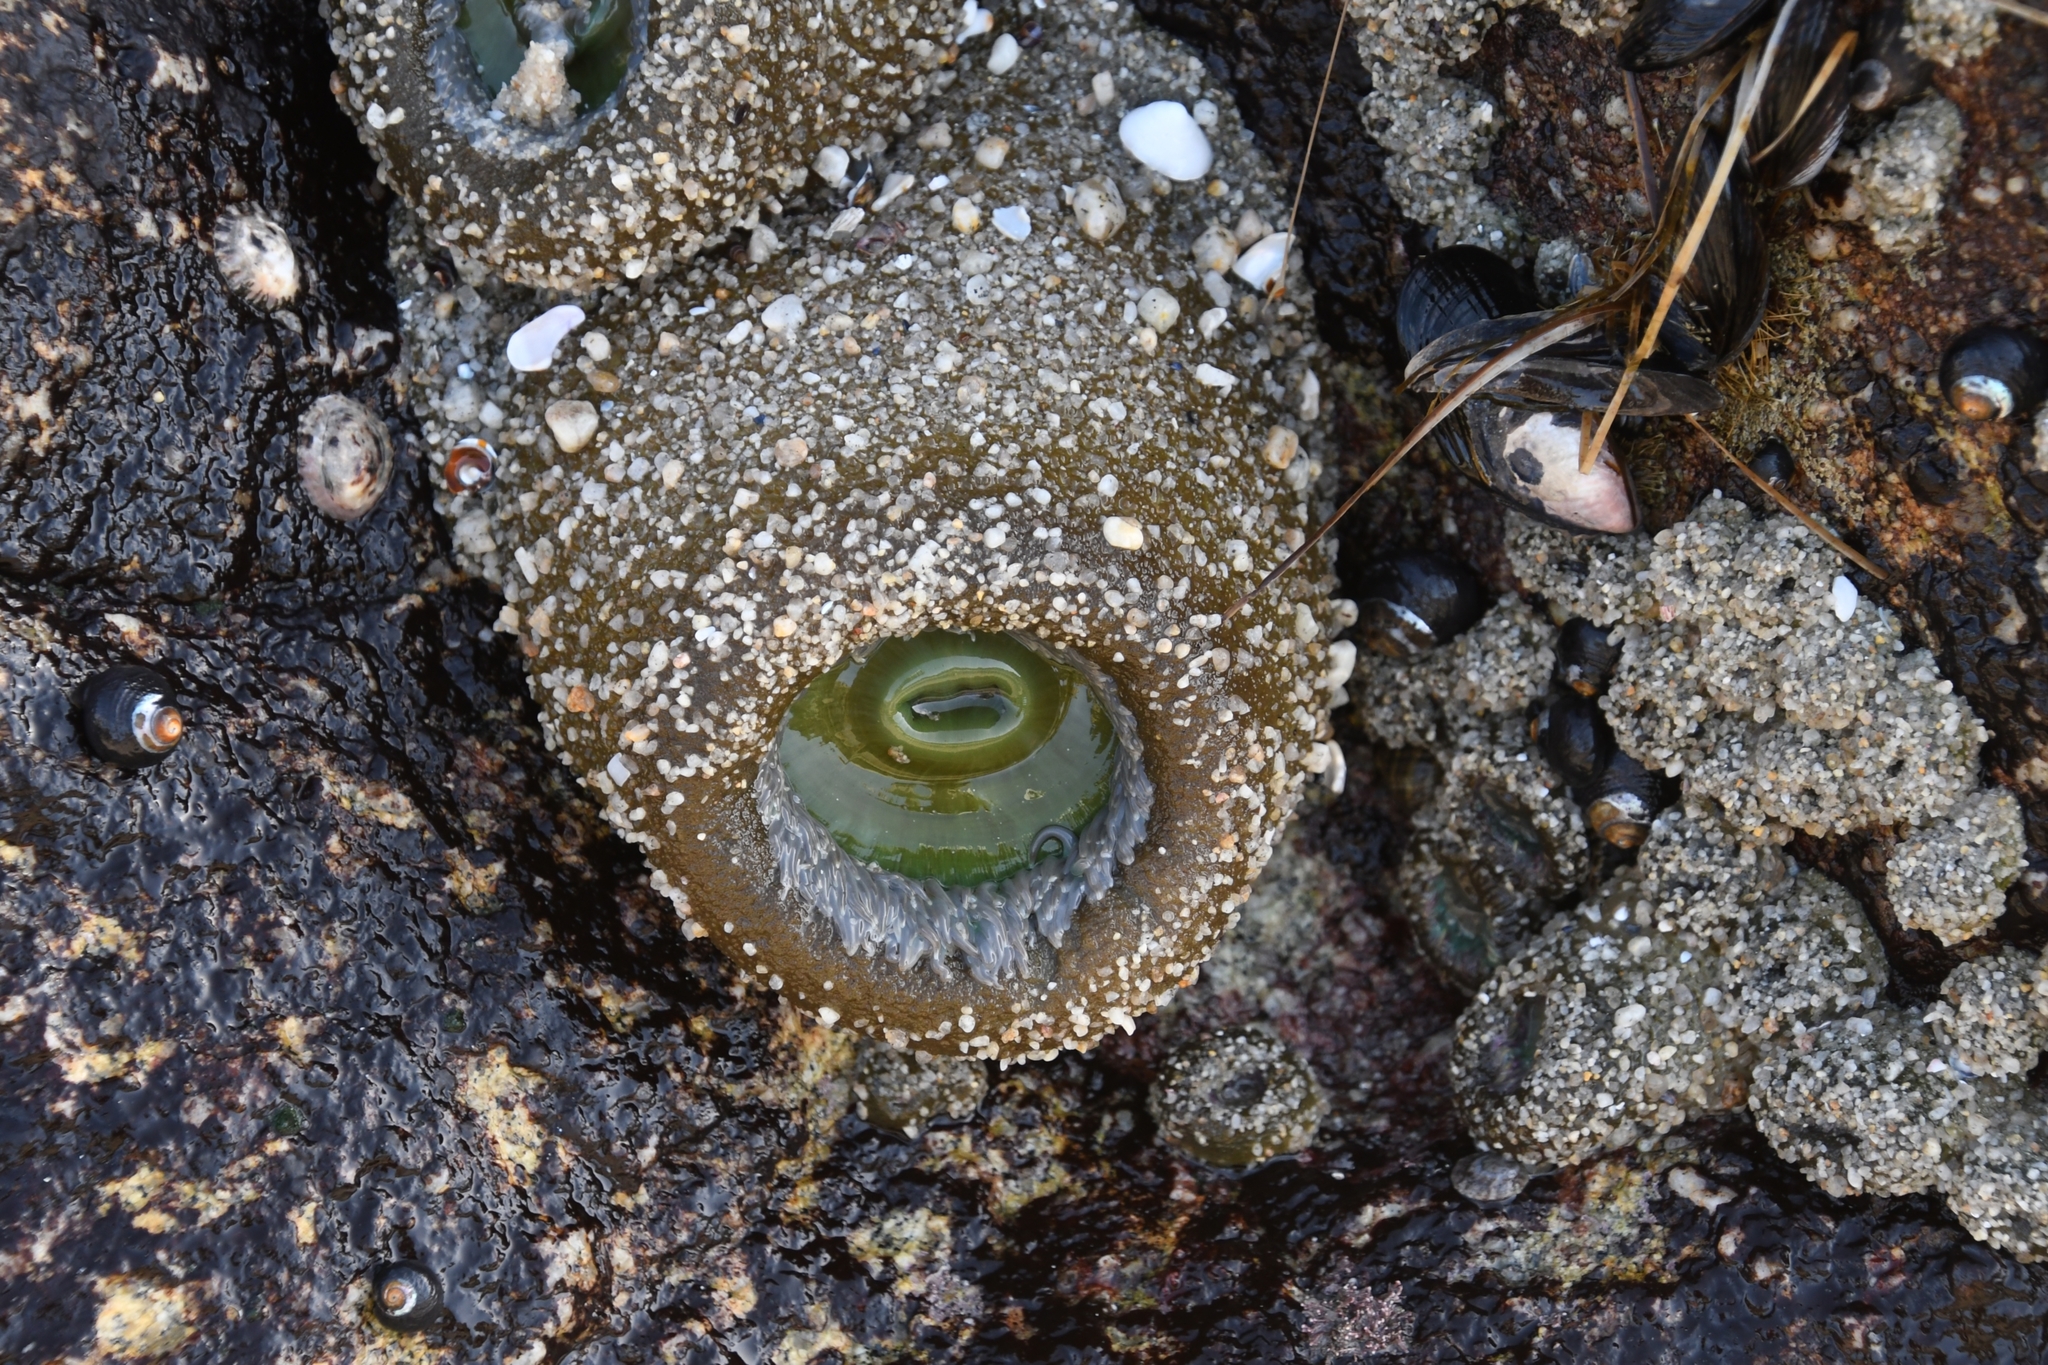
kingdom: Animalia
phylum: Cnidaria
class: Anthozoa
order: Actiniaria
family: Actiniidae
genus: Anthopleura
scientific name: Anthopleura xanthogrammica
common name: Giant green anemone
